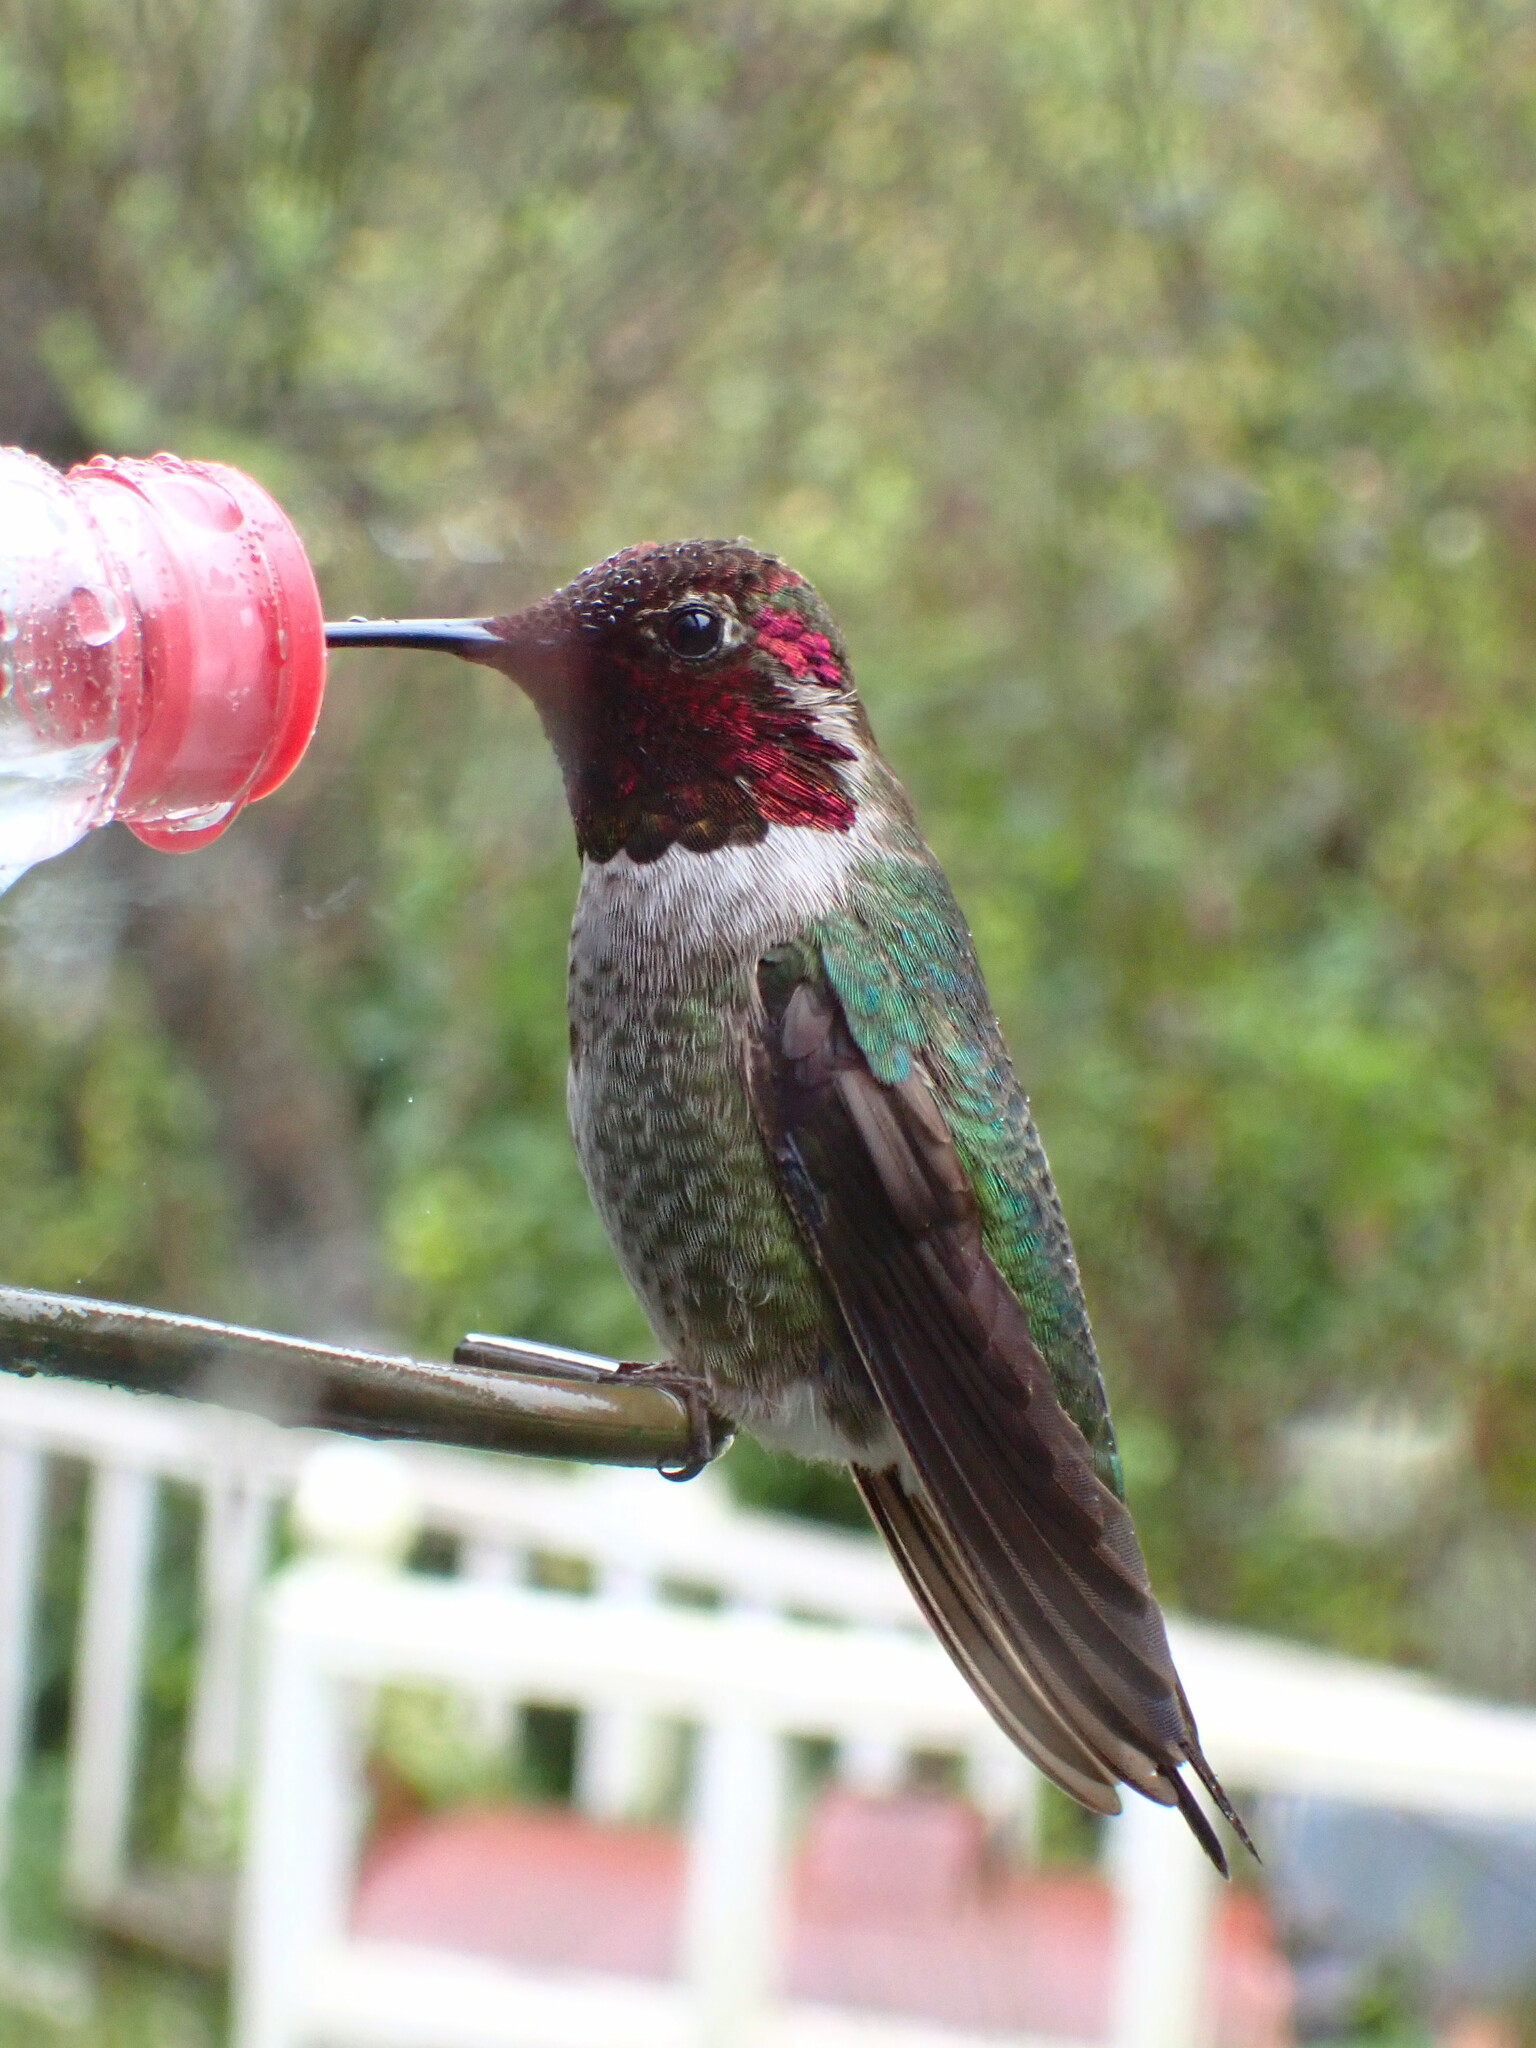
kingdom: Animalia
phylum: Chordata
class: Aves
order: Apodiformes
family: Trochilidae
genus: Calypte
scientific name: Calypte anna
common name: Anna's hummingbird
